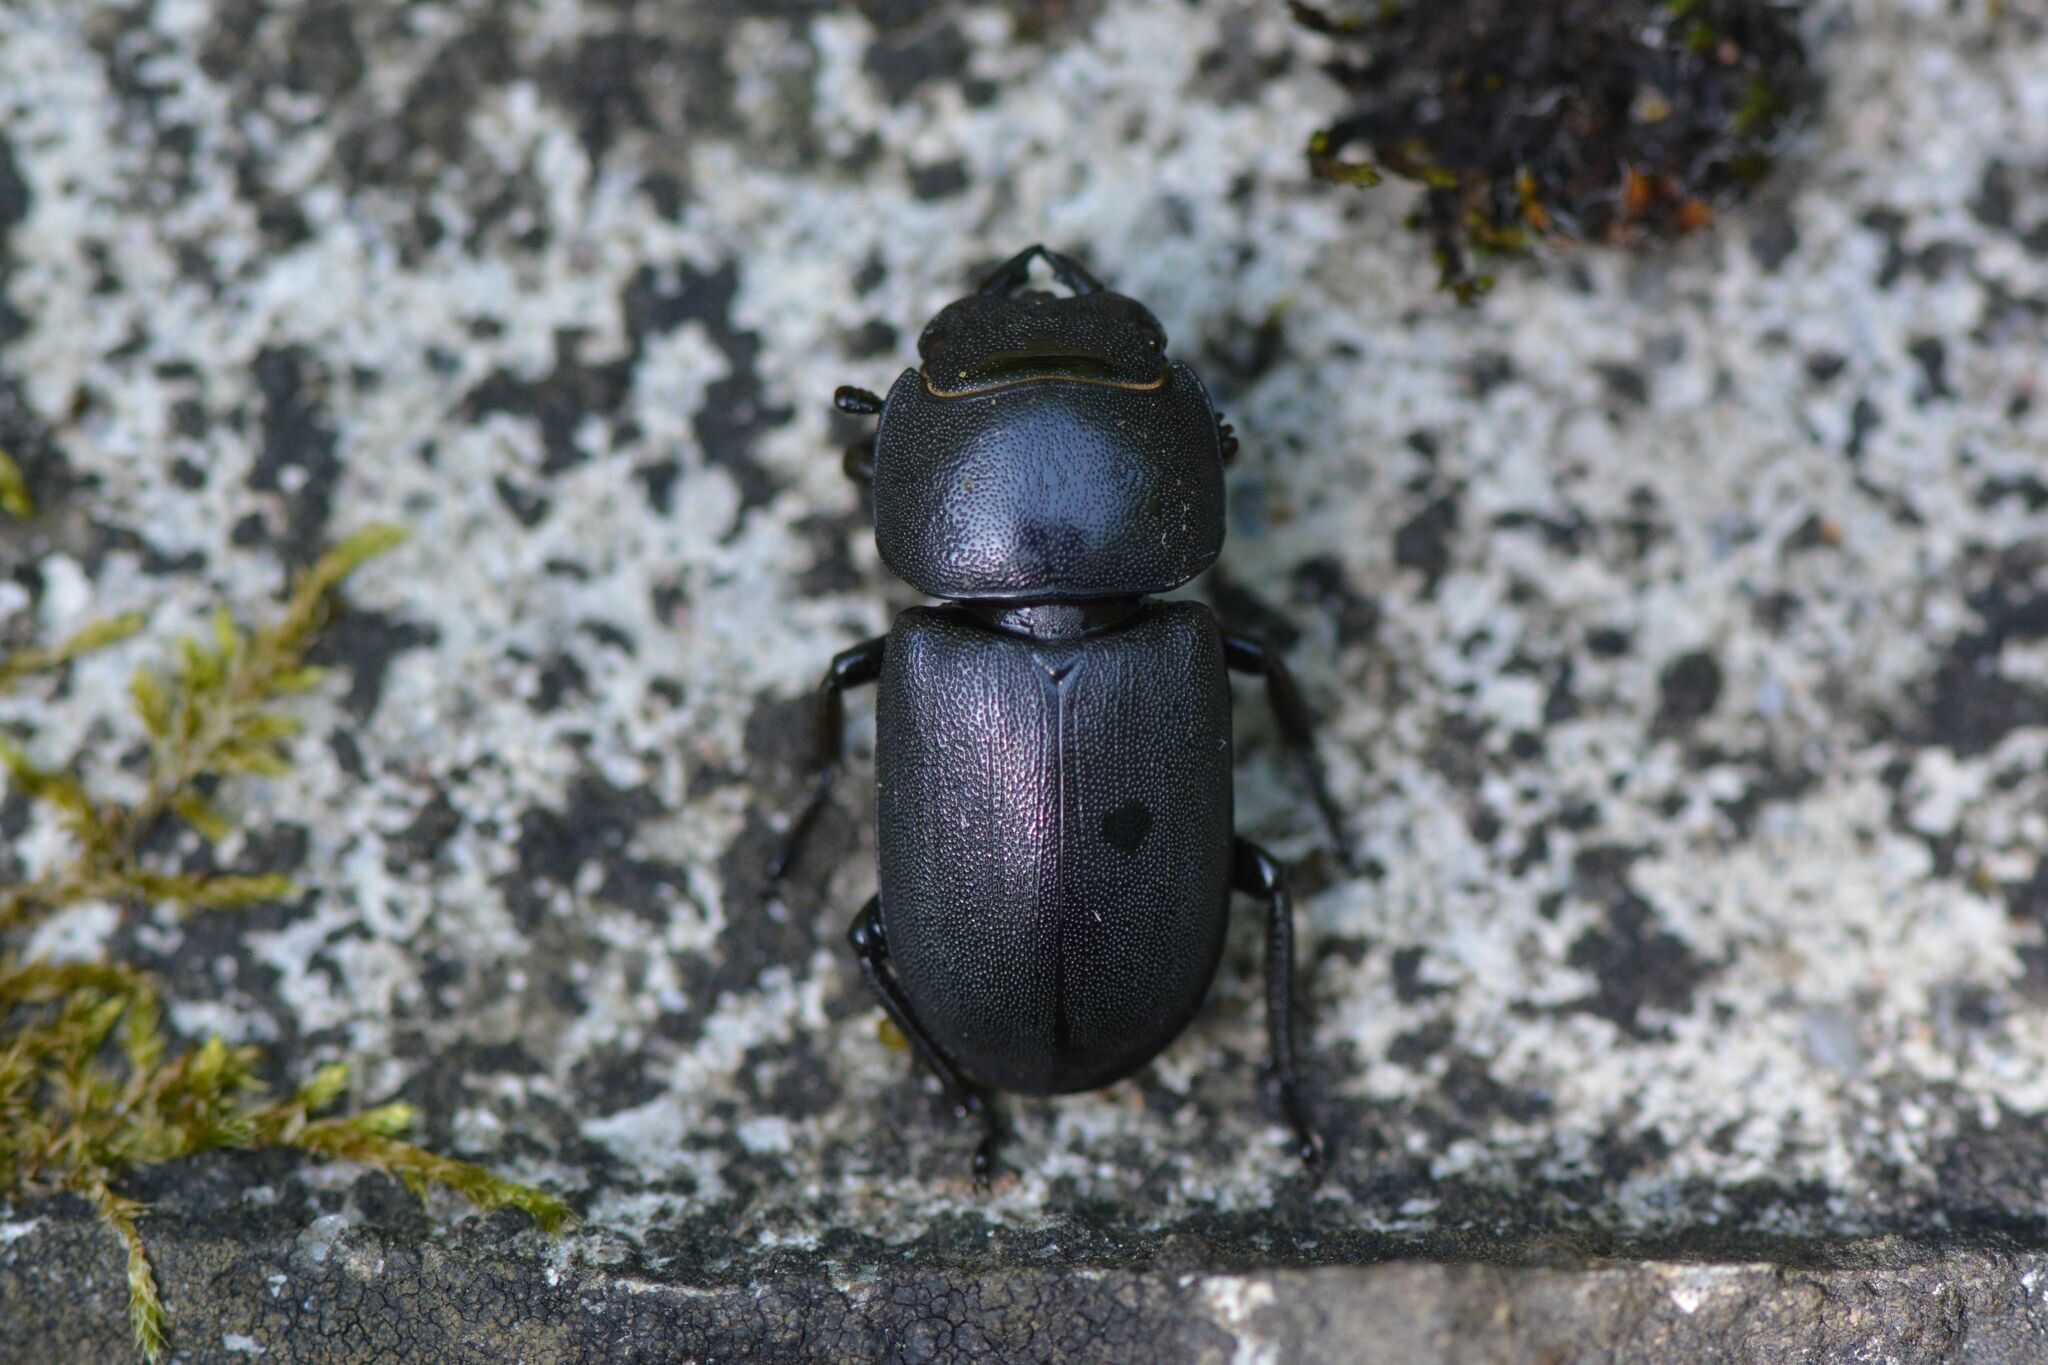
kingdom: Animalia
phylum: Arthropoda
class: Insecta
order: Coleoptera
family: Lucanidae
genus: Dorcus
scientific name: Dorcus parallelipipedus
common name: Lesser stag beetle
